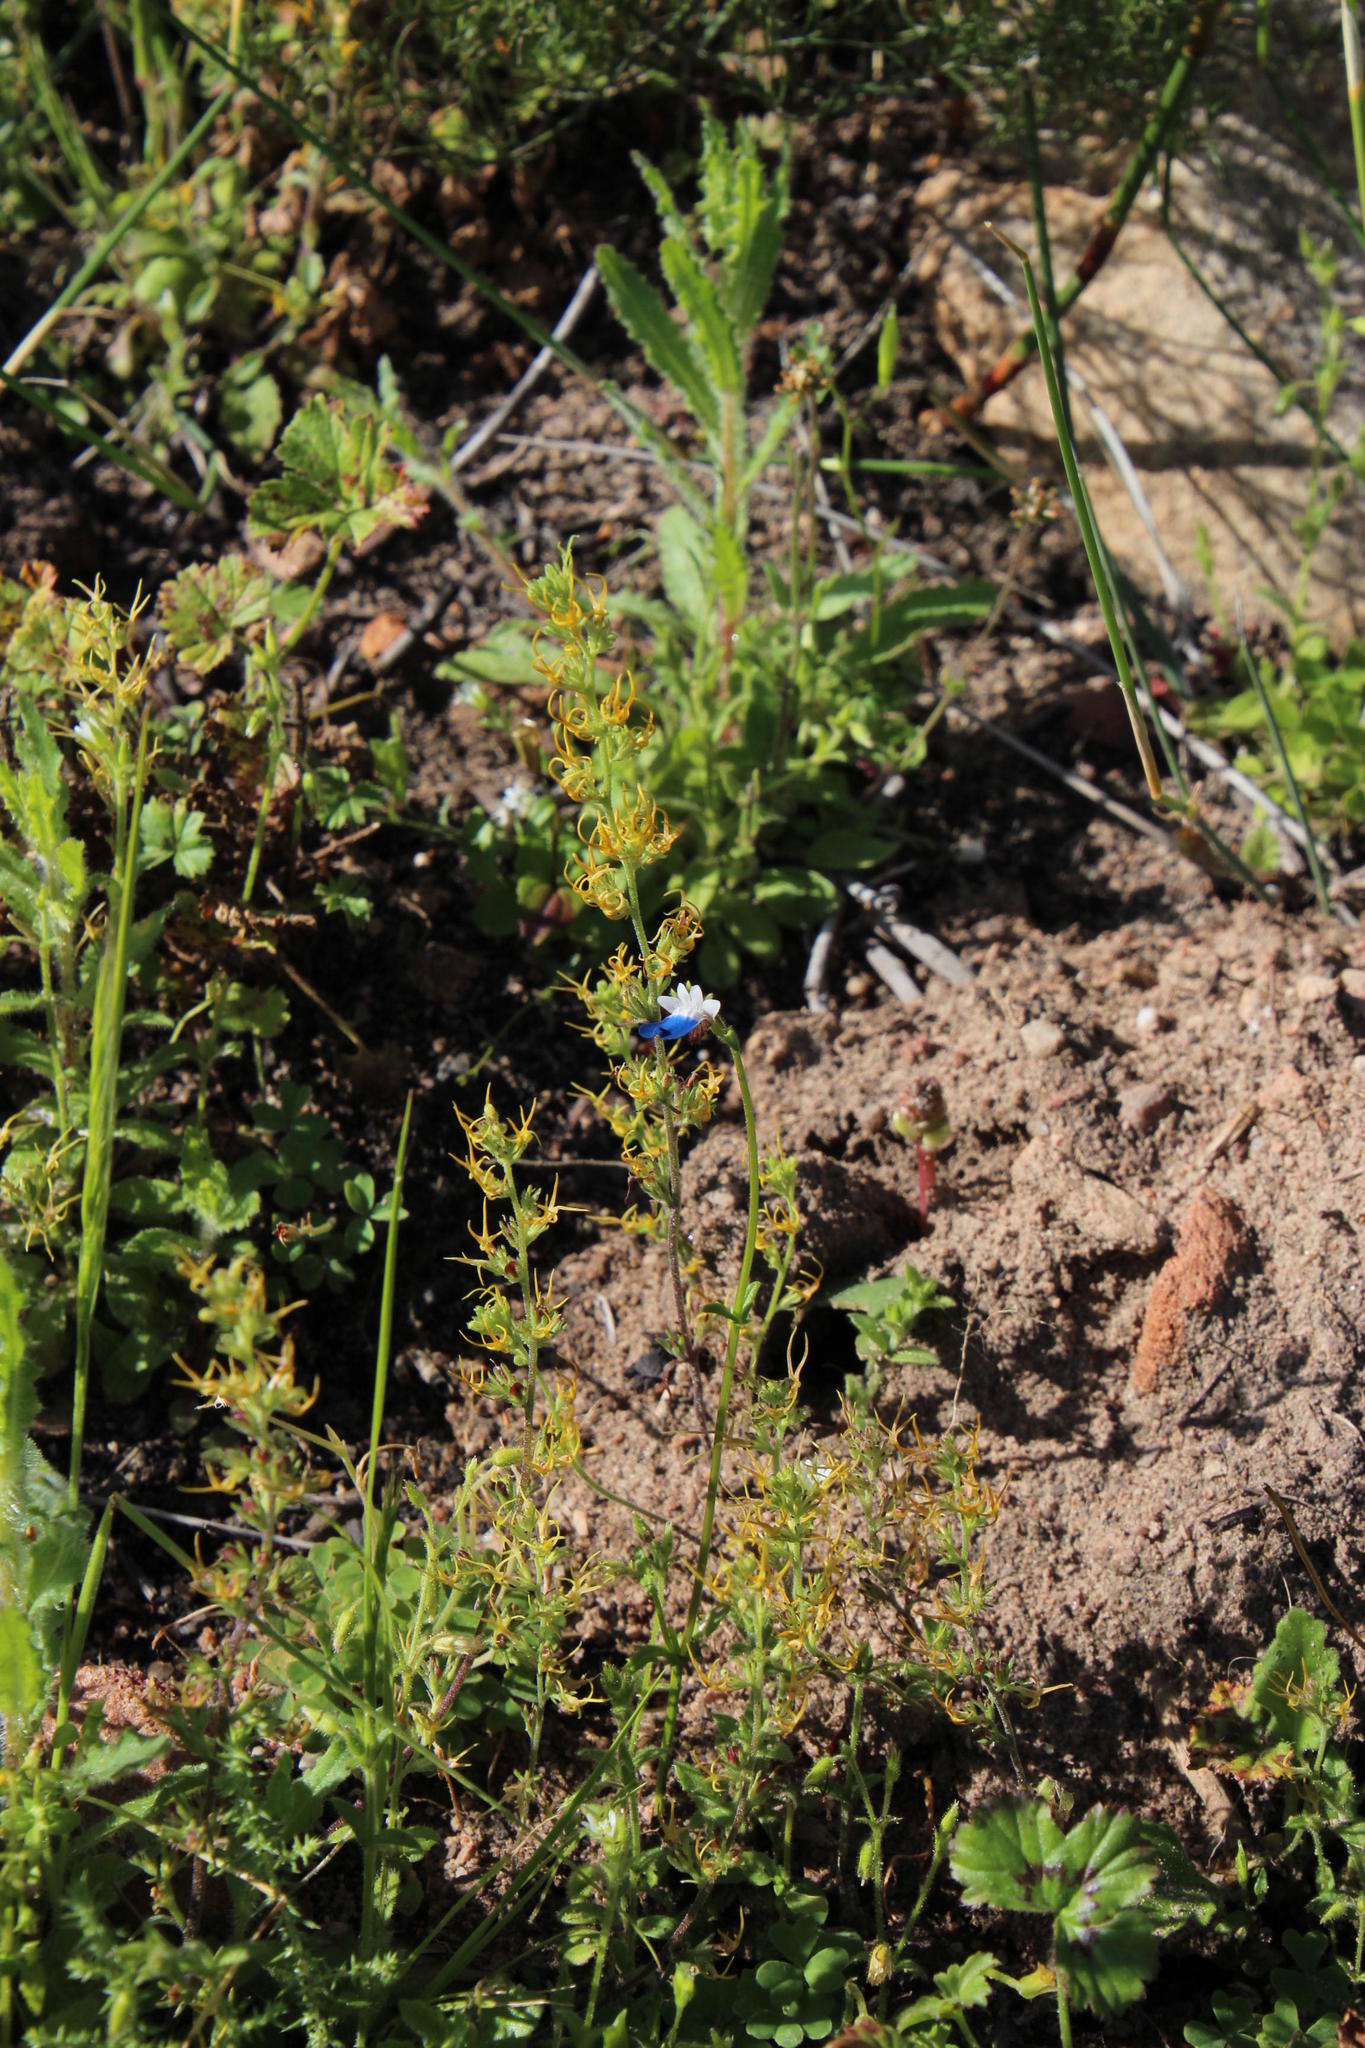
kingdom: Plantae
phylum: Tracheophyta
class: Magnoliopsida
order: Lamiales
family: Scrophulariaceae
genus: Manulea
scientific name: Manulea cheiranthus
